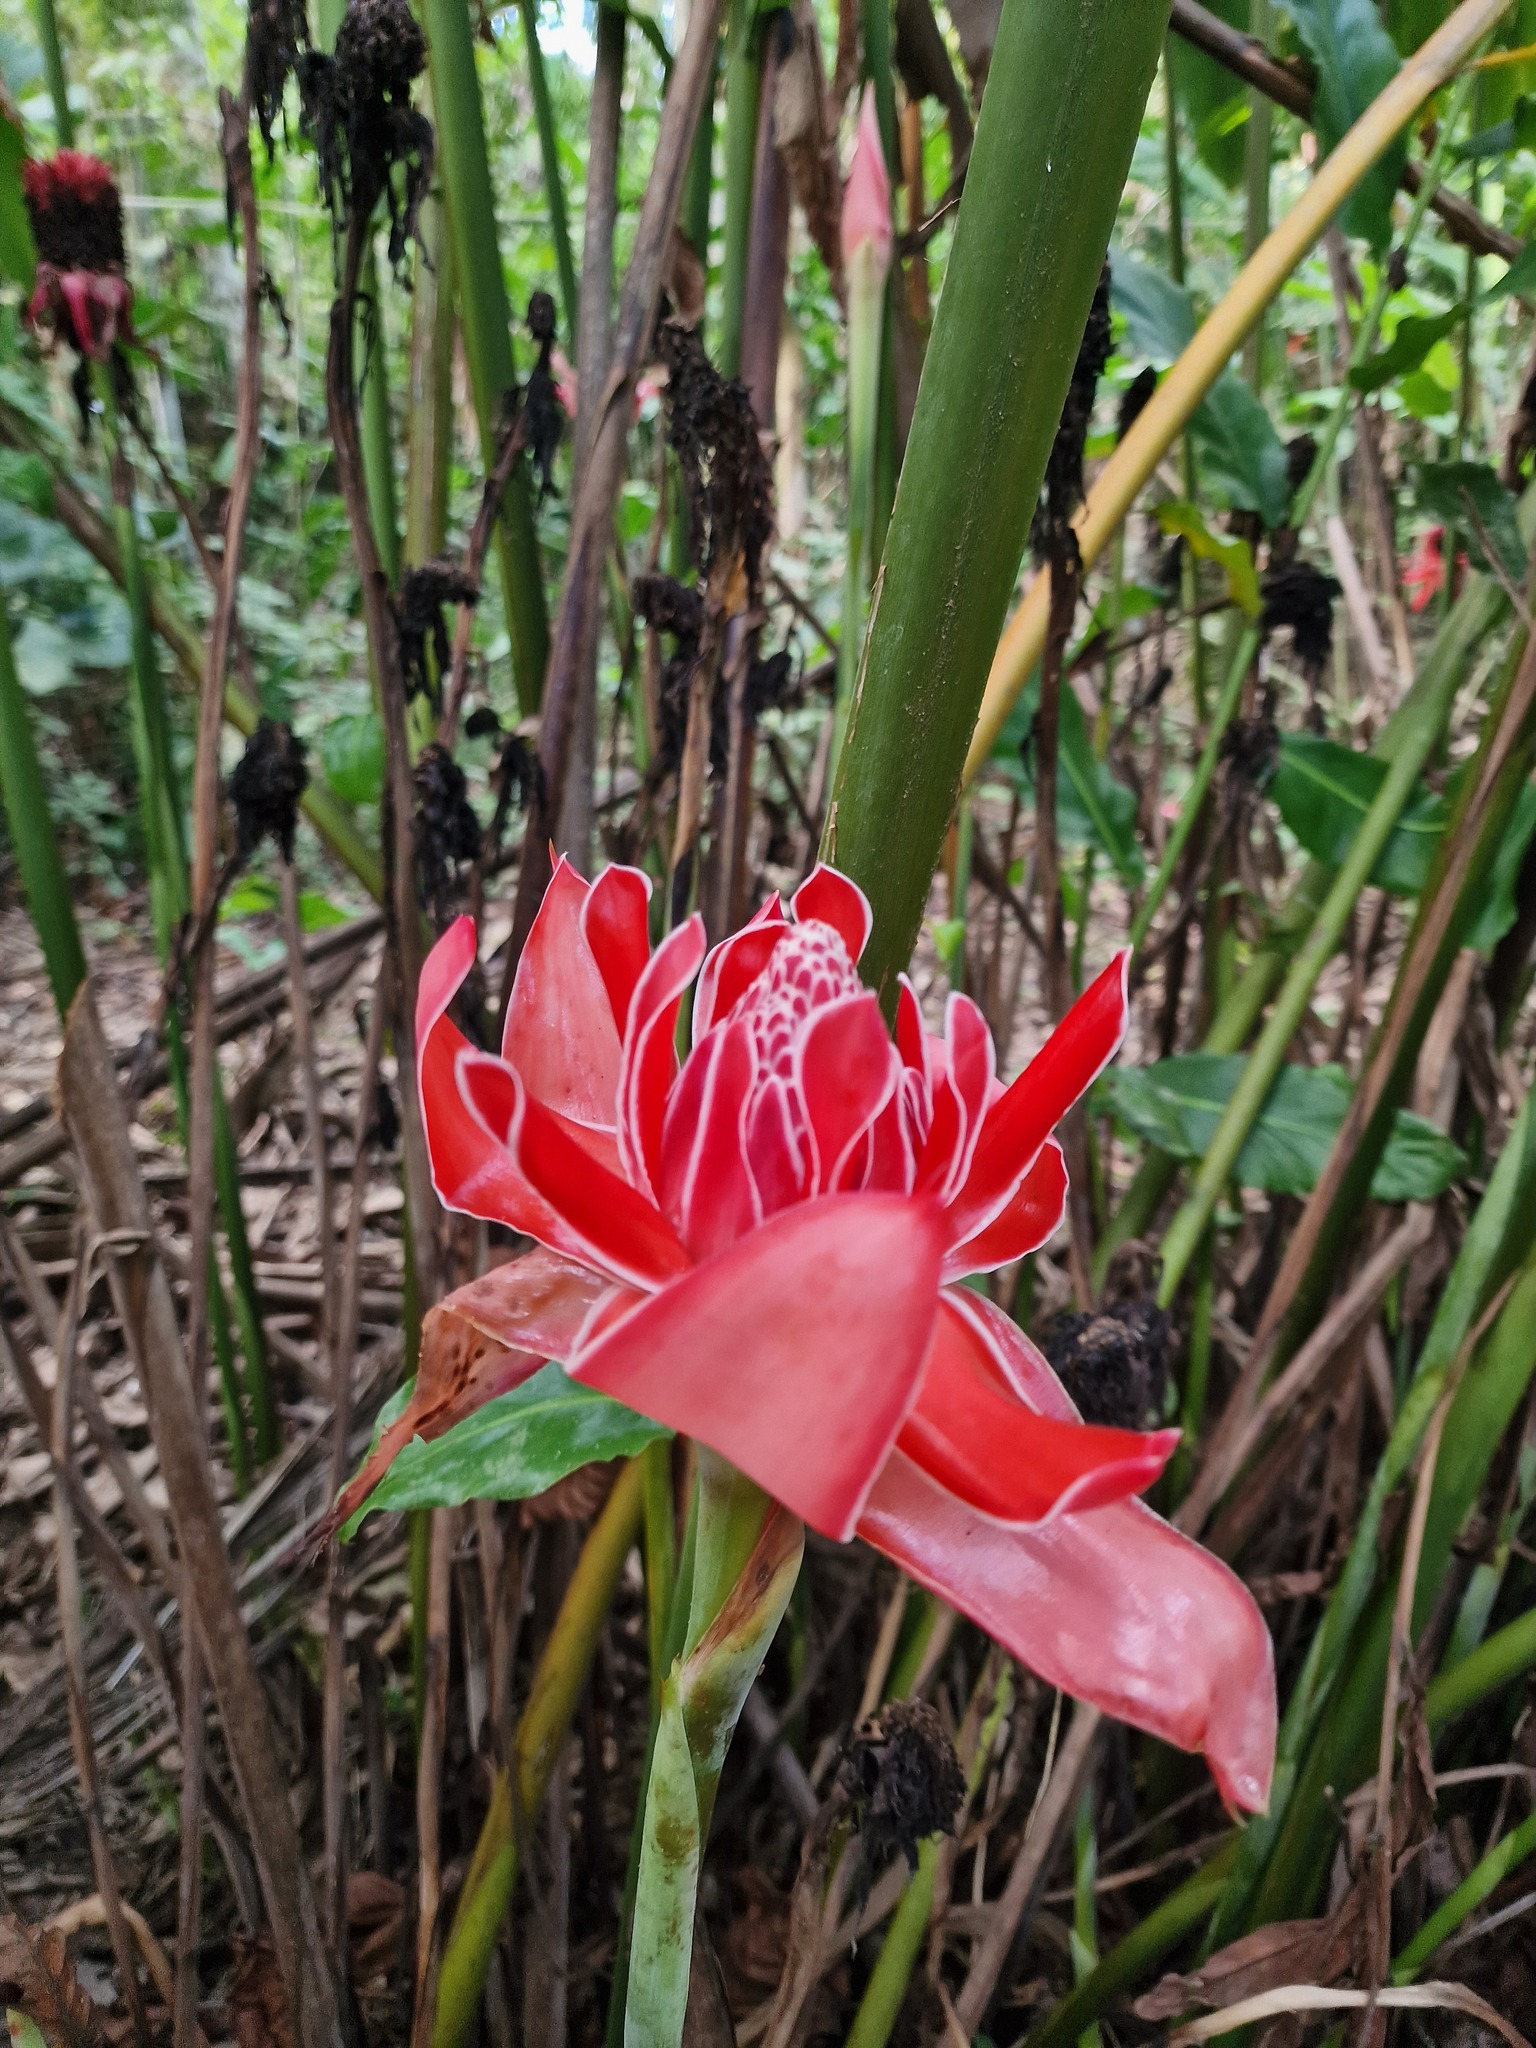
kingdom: Plantae
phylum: Tracheophyta
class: Liliopsida
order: Zingiberales
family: Zingiberaceae
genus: Etlingera
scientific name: Etlingera elatior
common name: Philippine waxflower
